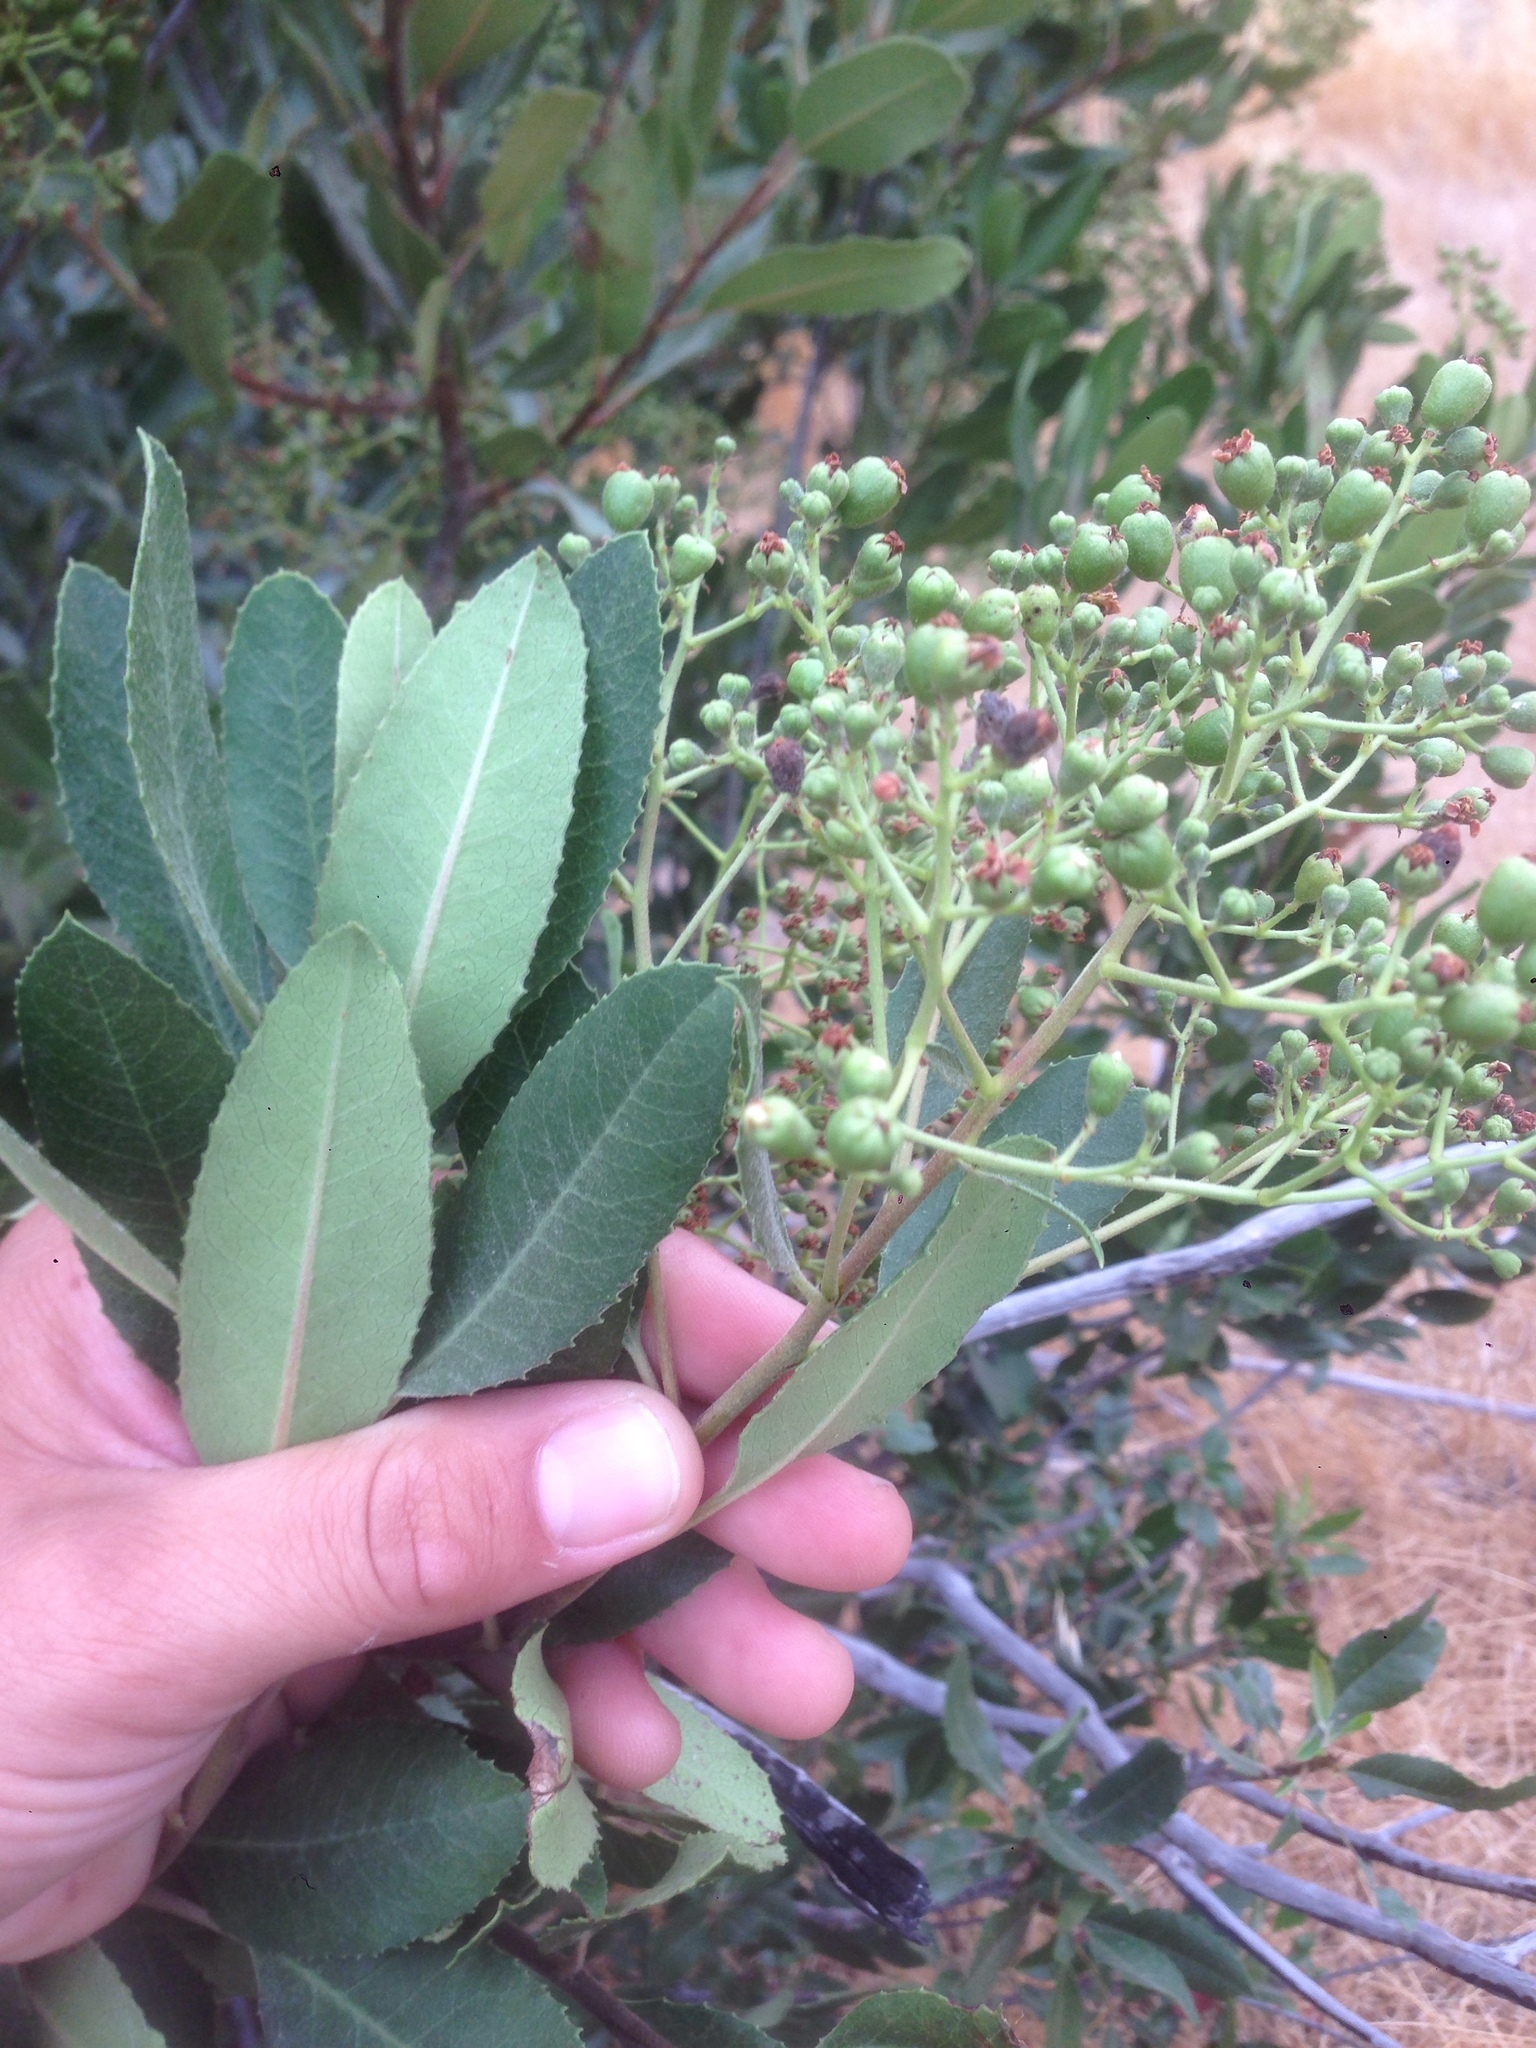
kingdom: Plantae
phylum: Tracheophyta
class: Magnoliopsida
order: Rosales
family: Rosaceae
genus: Heteromeles
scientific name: Heteromeles arbutifolia
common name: California-holly
